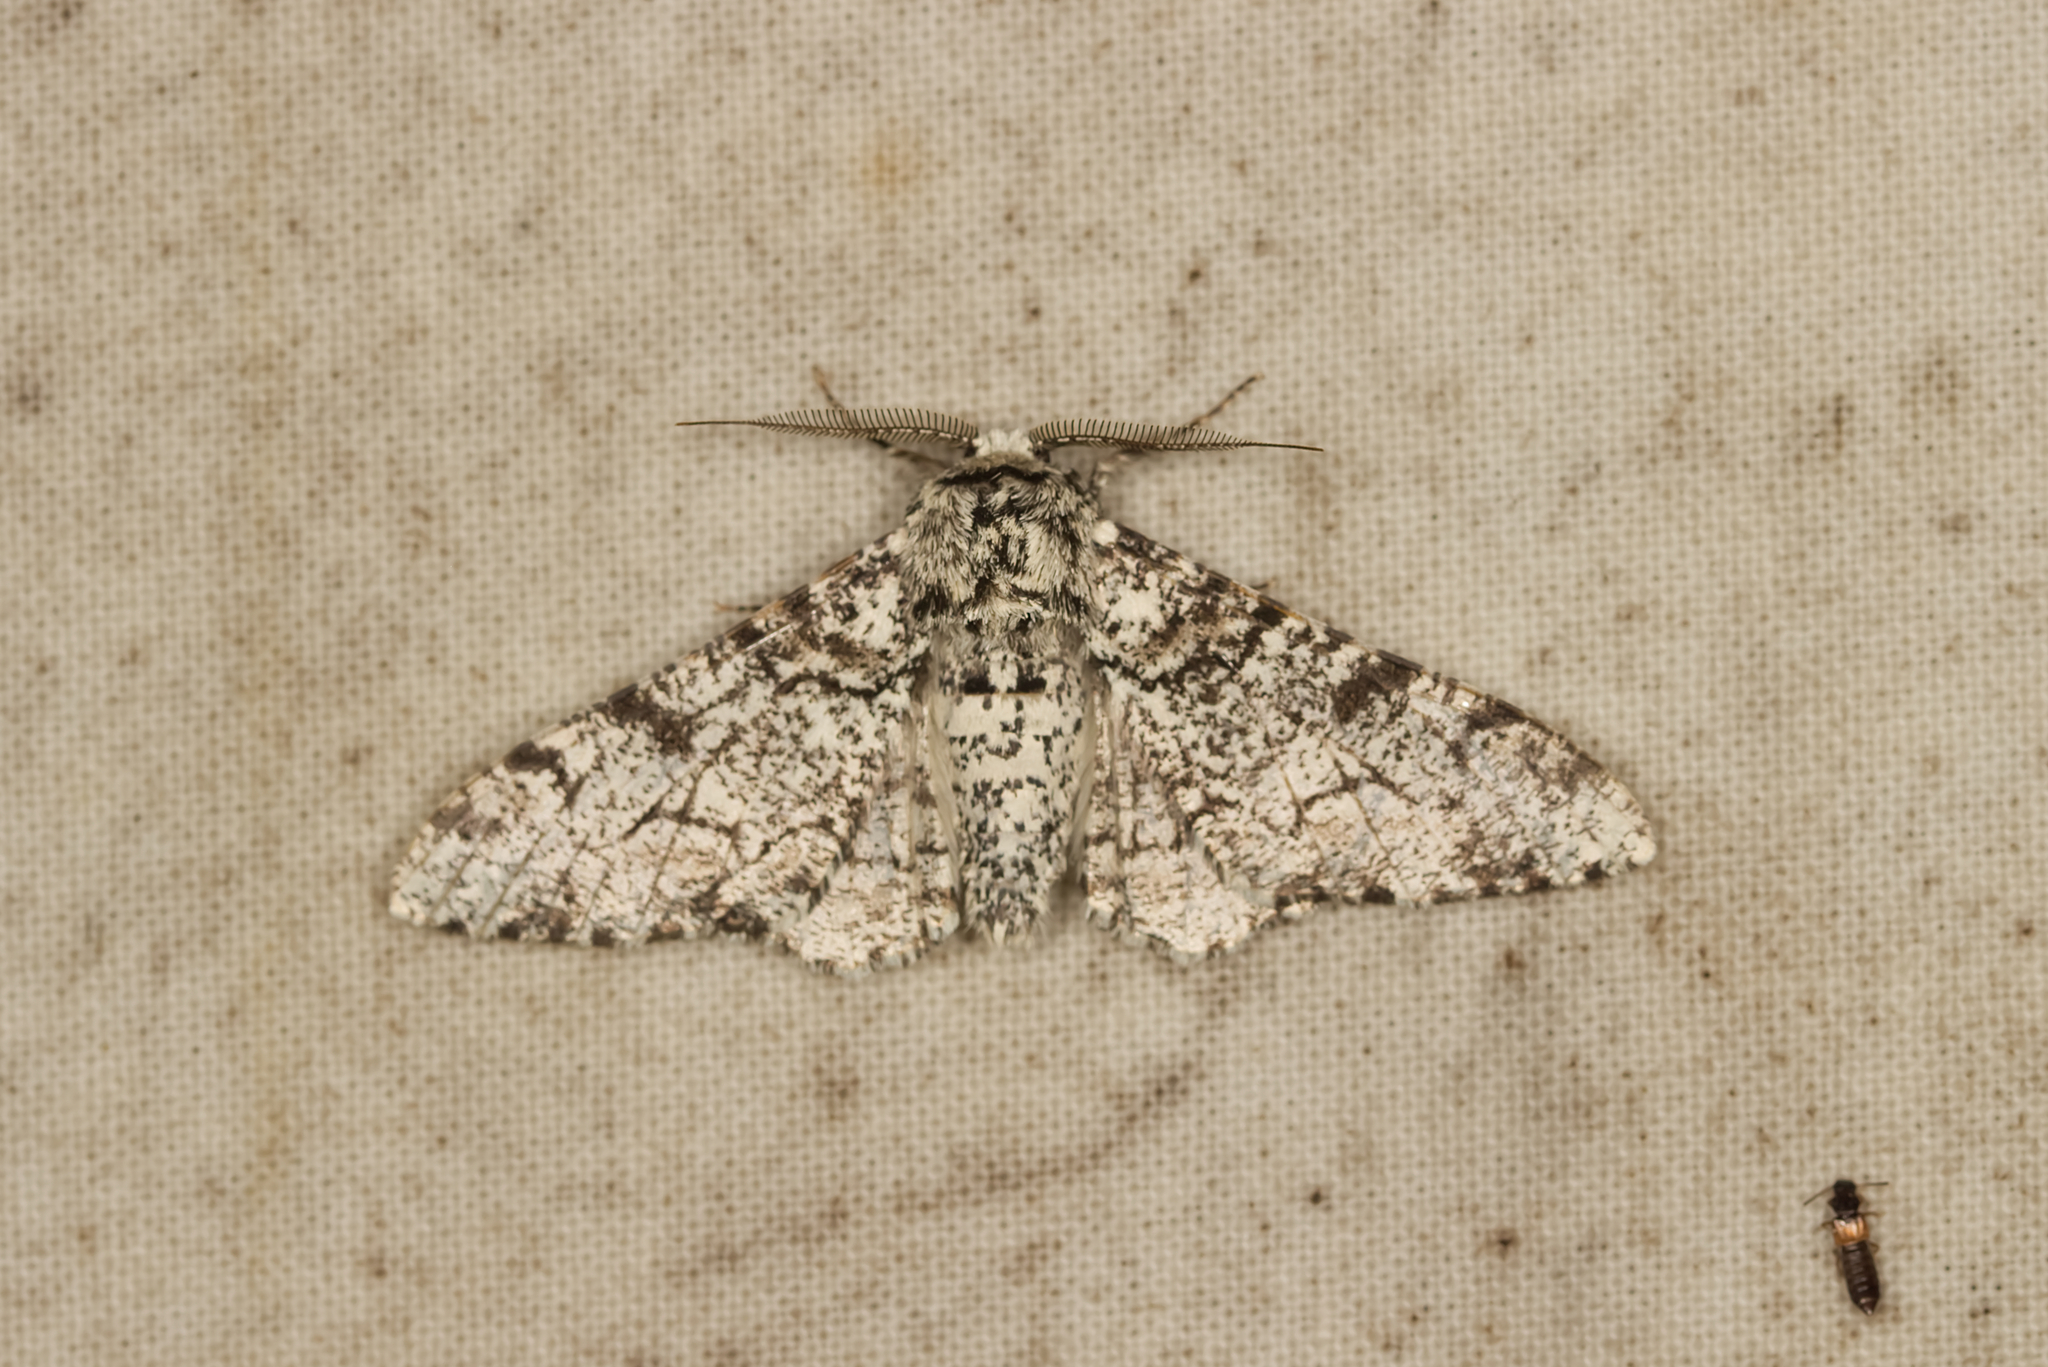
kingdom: Animalia
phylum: Arthropoda
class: Insecta
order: Lepidoptera
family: Geometridae
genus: Biston
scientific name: Biston betularia
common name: Peppered moth
